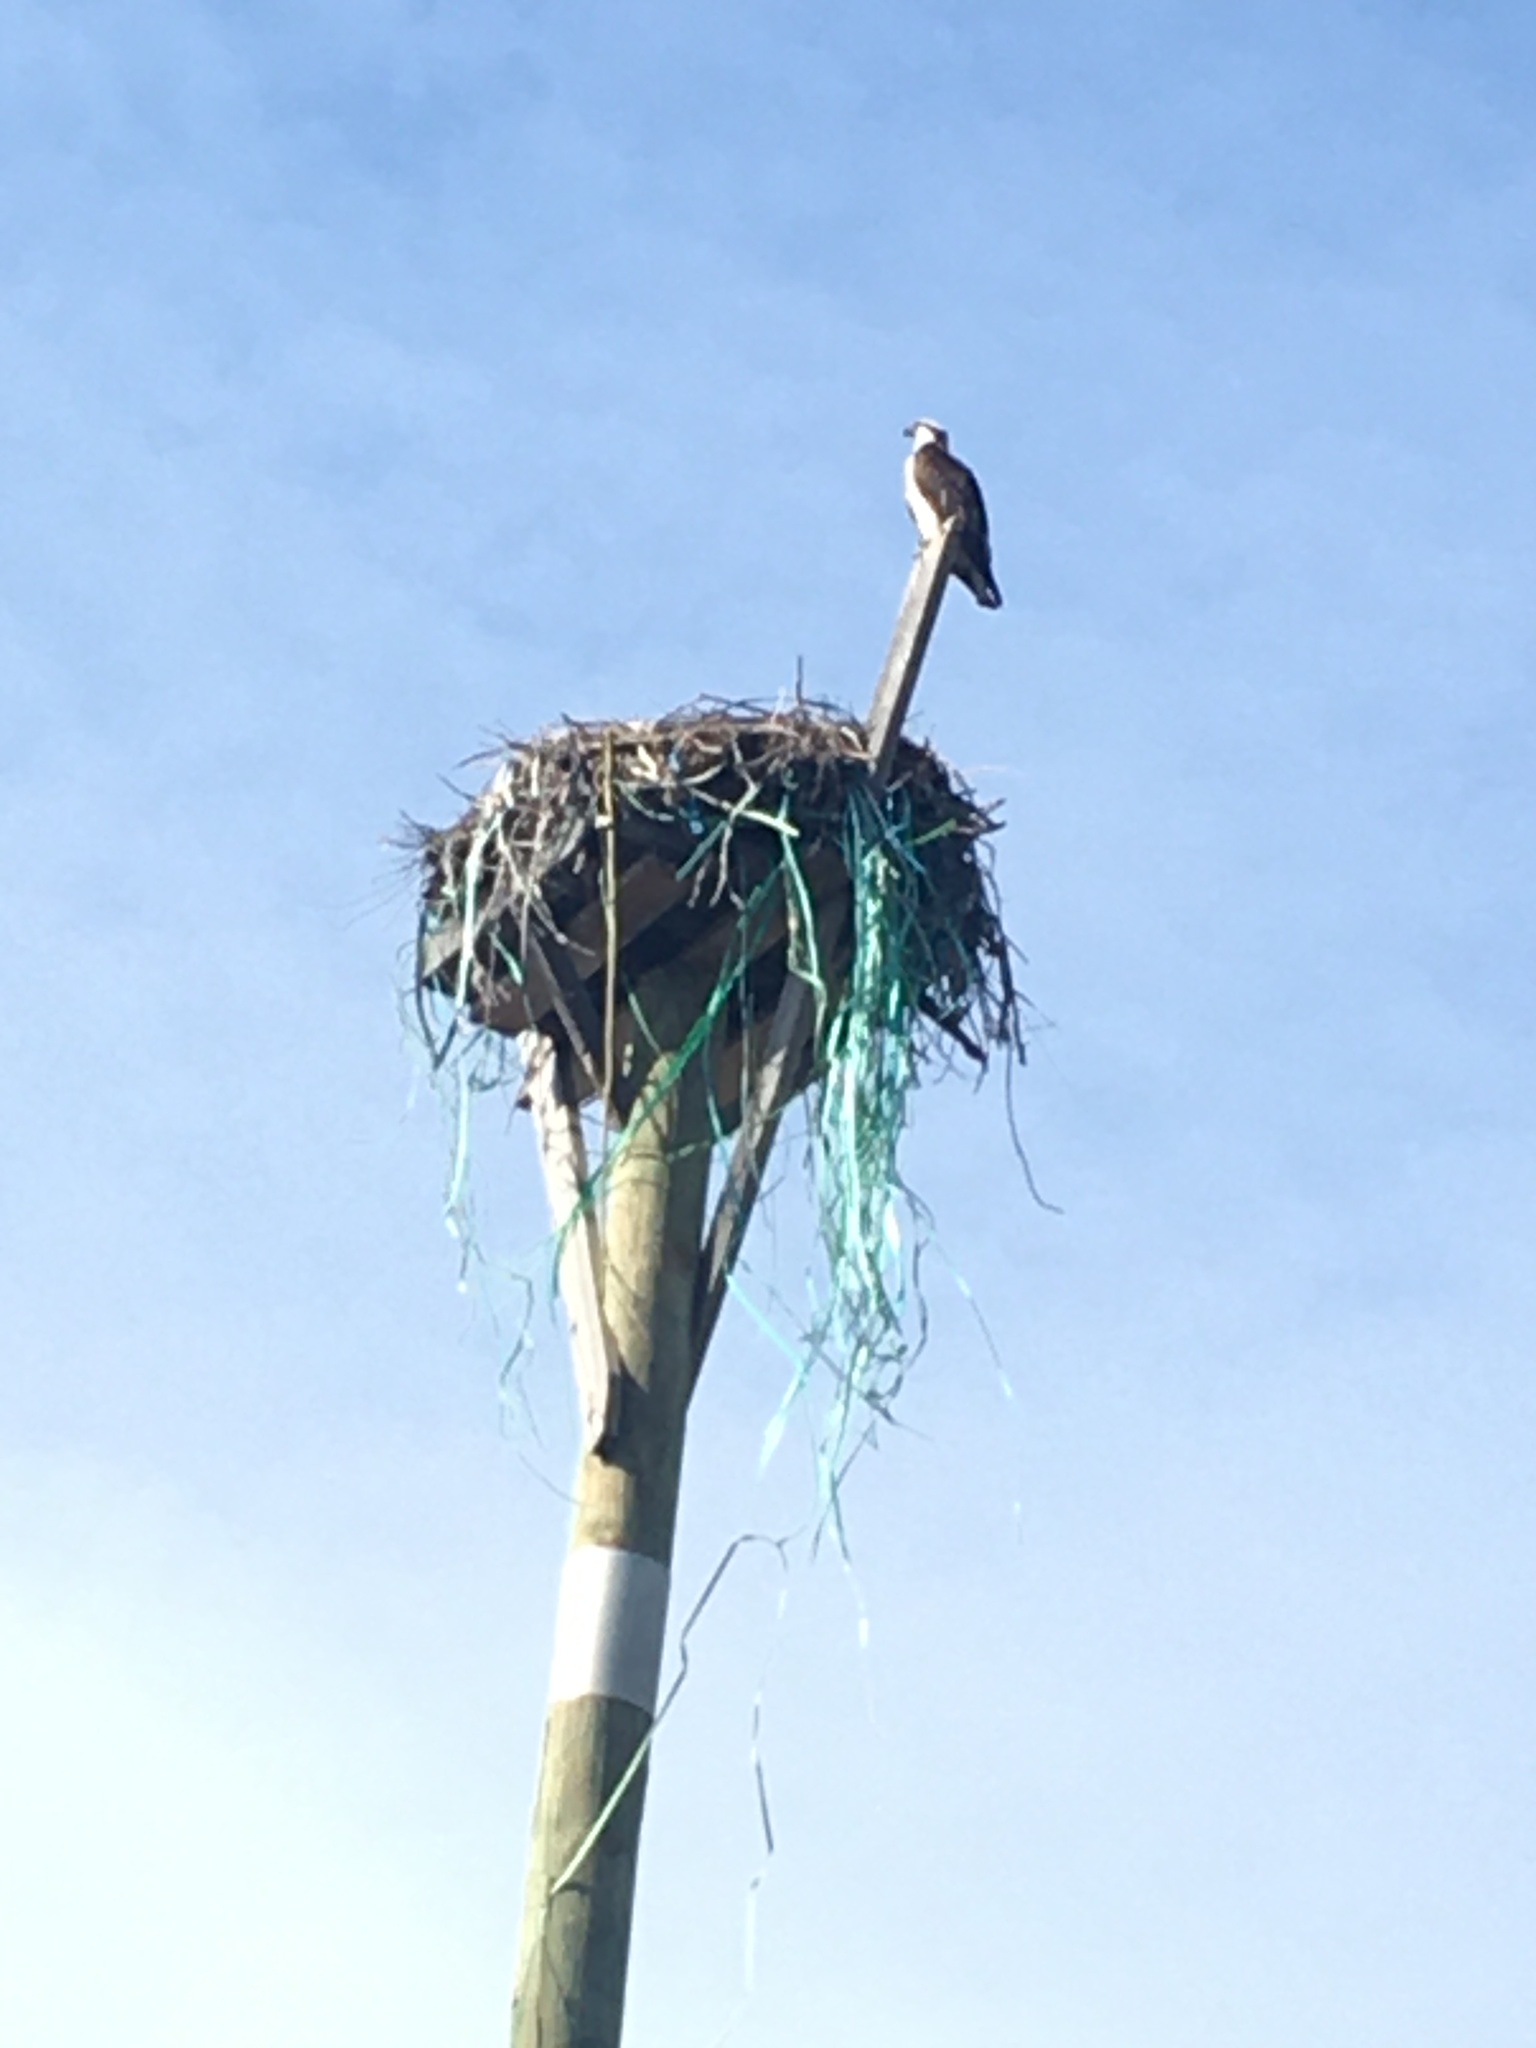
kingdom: Animalia
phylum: Chordata
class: Aves
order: Accipitriformes
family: Pandionidae
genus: Pandion
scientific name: Pandion haliaetus
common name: Osprey
